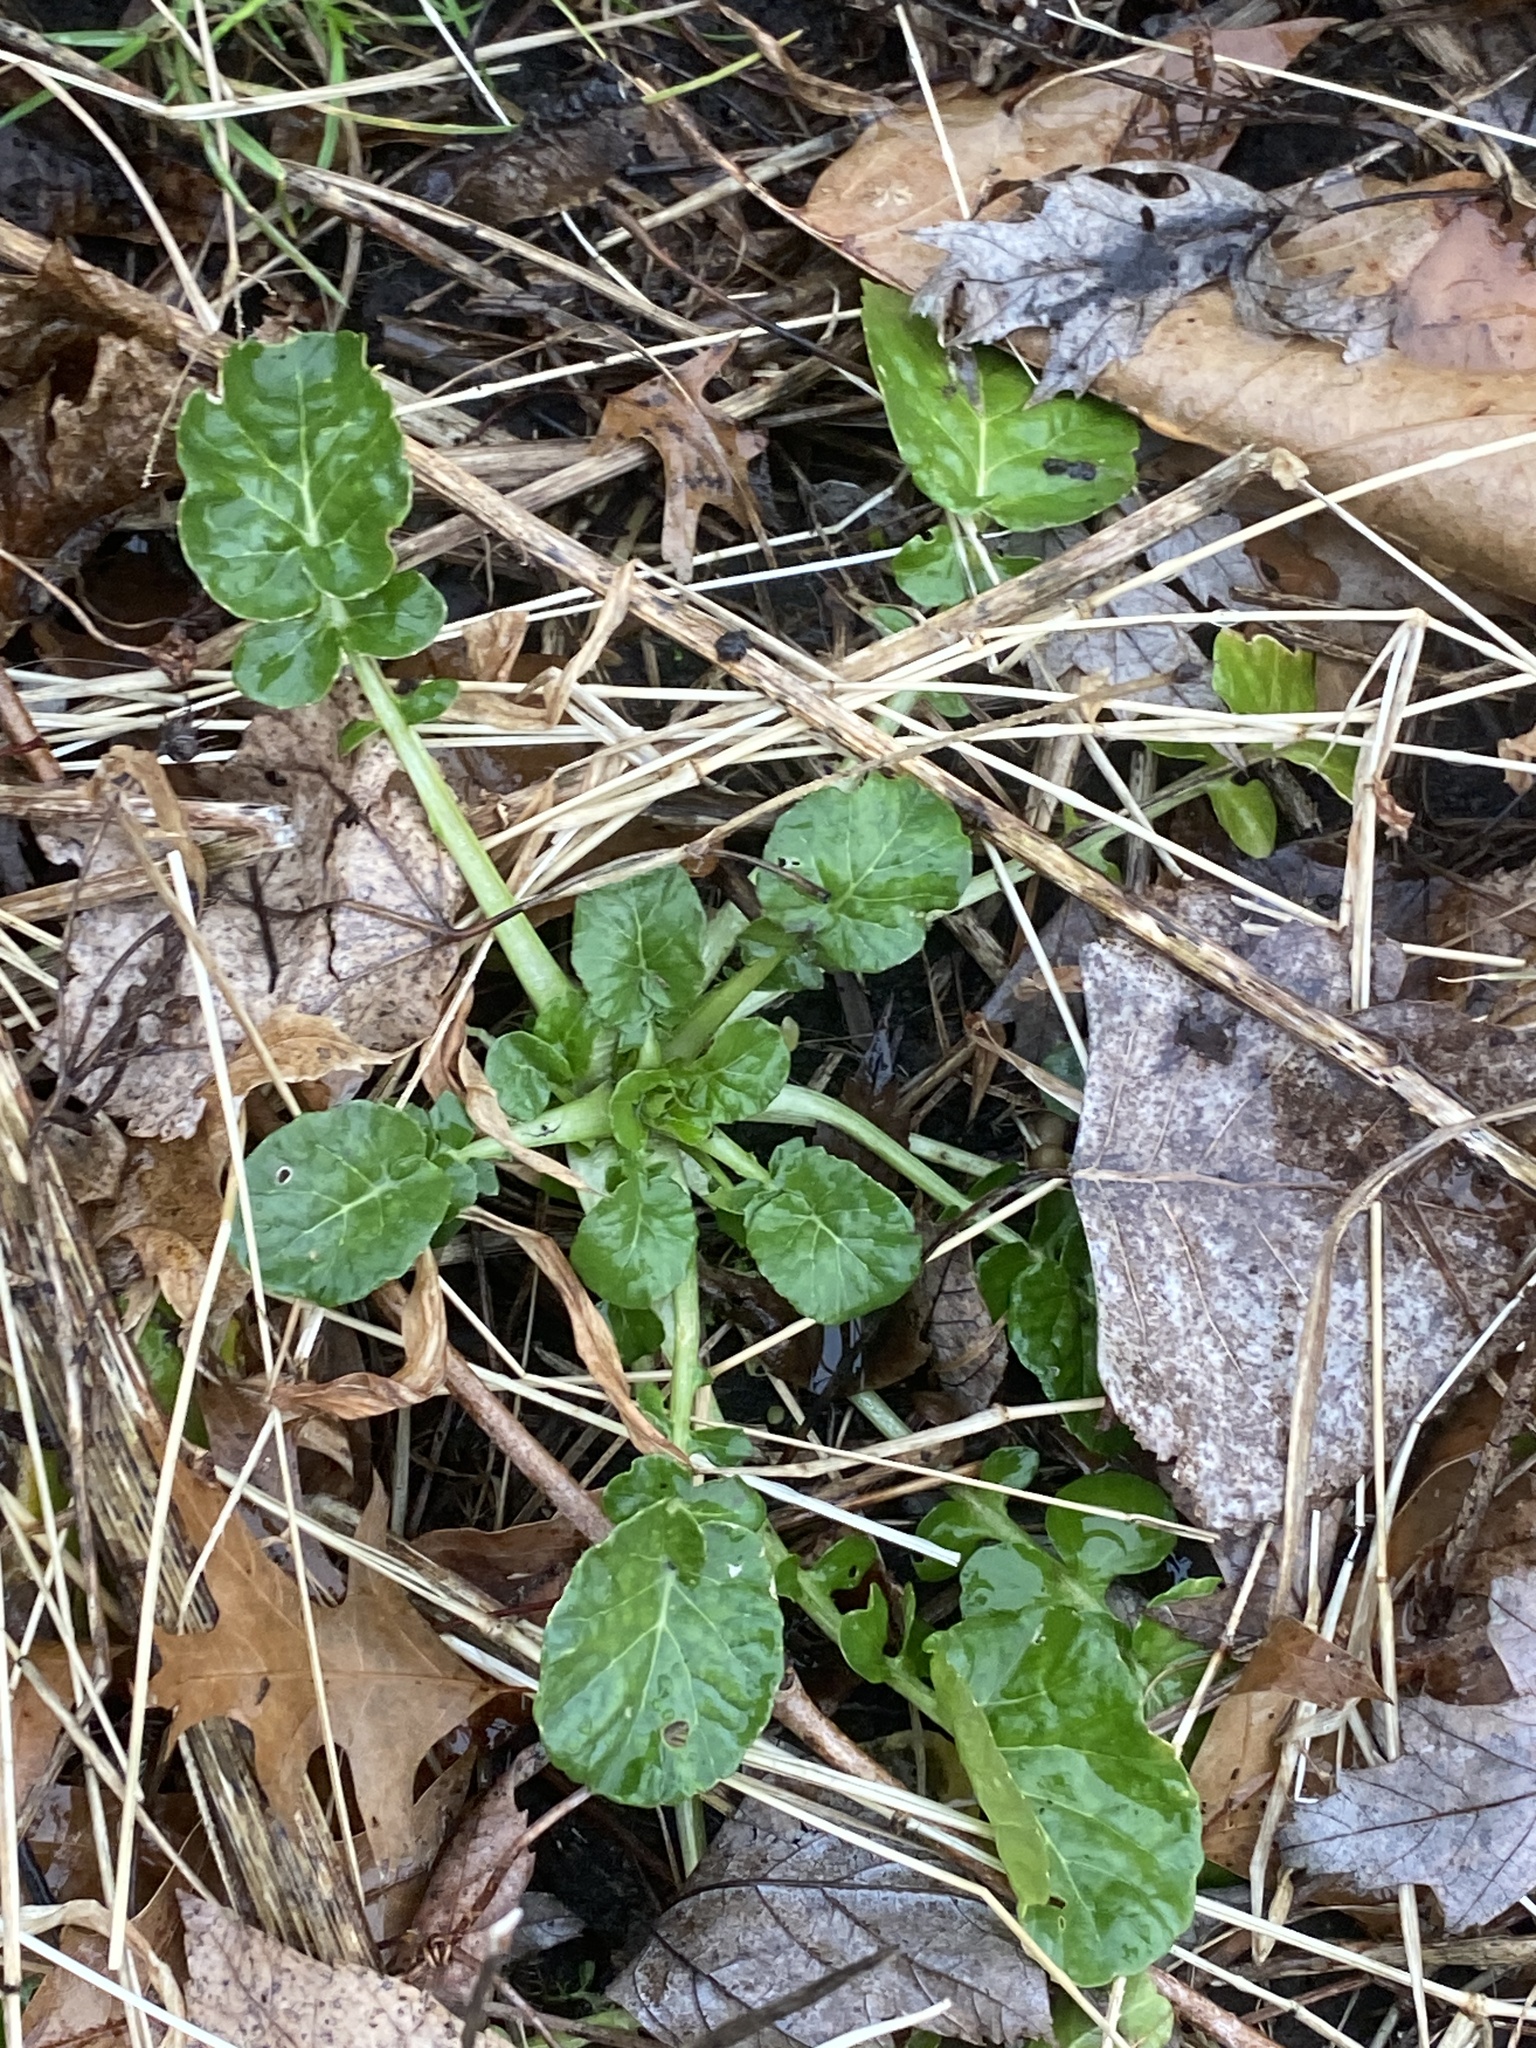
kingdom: Plantae
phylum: Tracheophyta
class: Magnoliopsida
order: Brassicales
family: Brassicaceae
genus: Barbarea
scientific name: Barbarea vulgaris
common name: Cressy-greens
